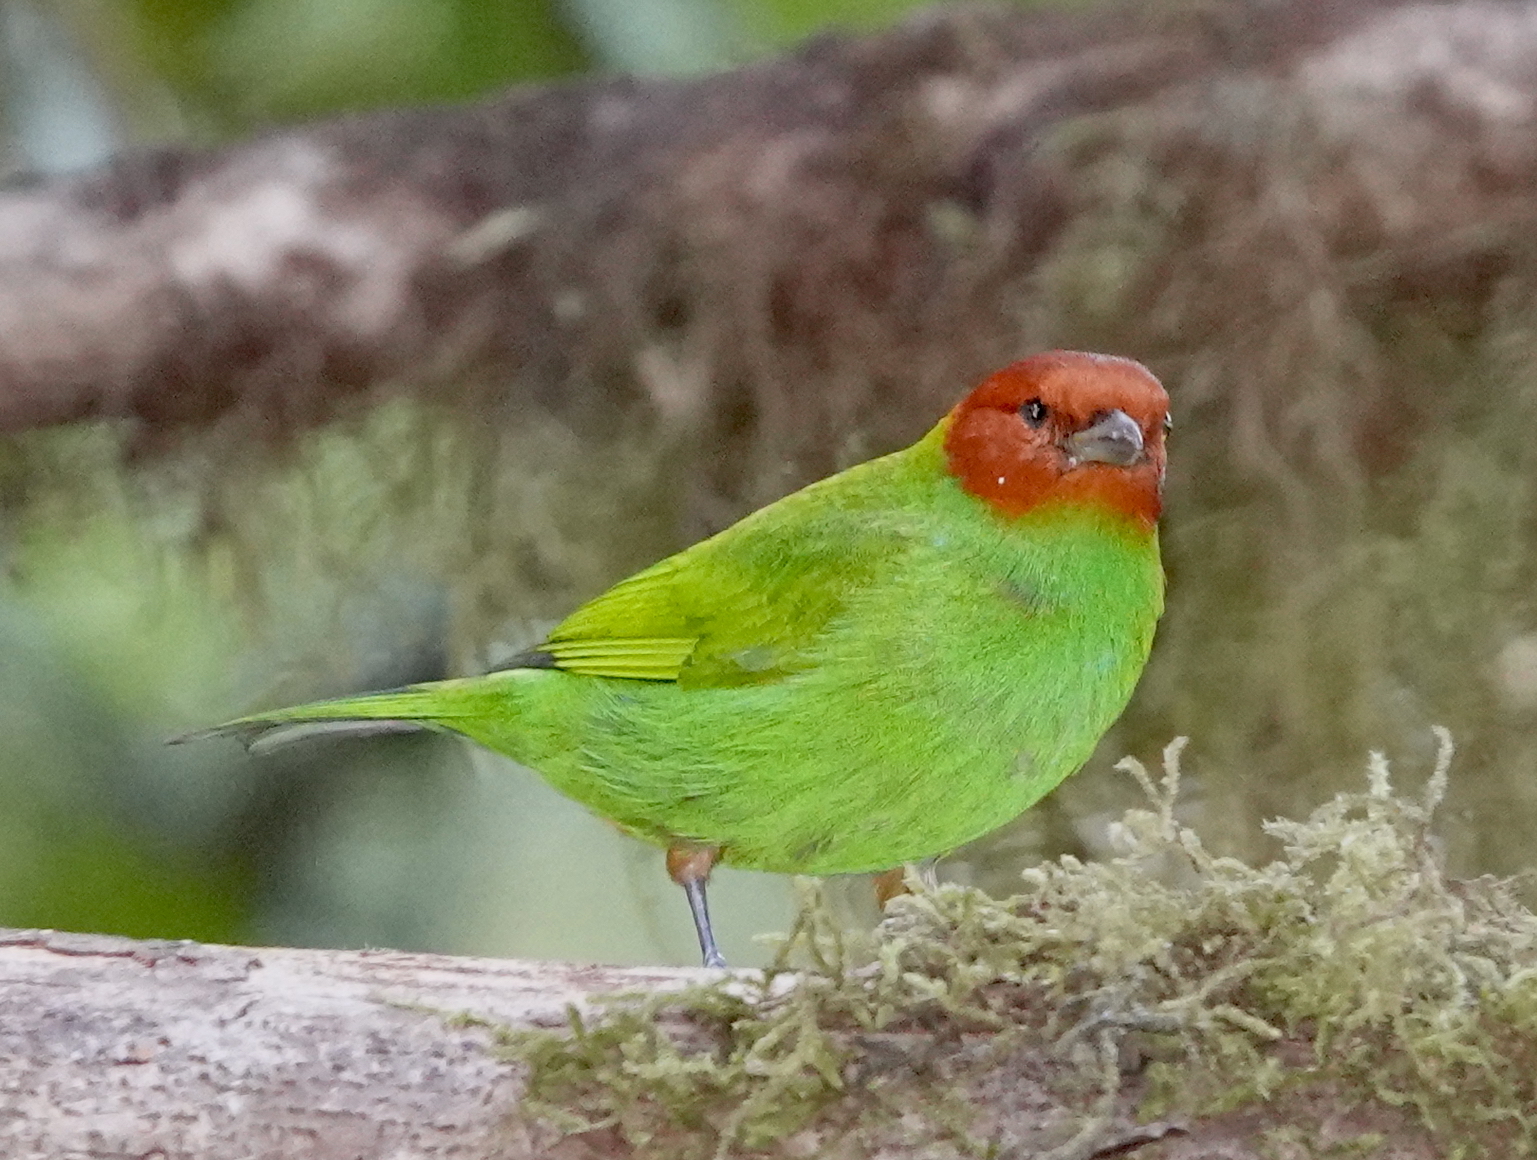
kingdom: Animalia
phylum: Chordata
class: Aves
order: Passeriformes
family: Thraupidae
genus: Tangara
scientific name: Tangara gyrola
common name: Bay-headed tanager
